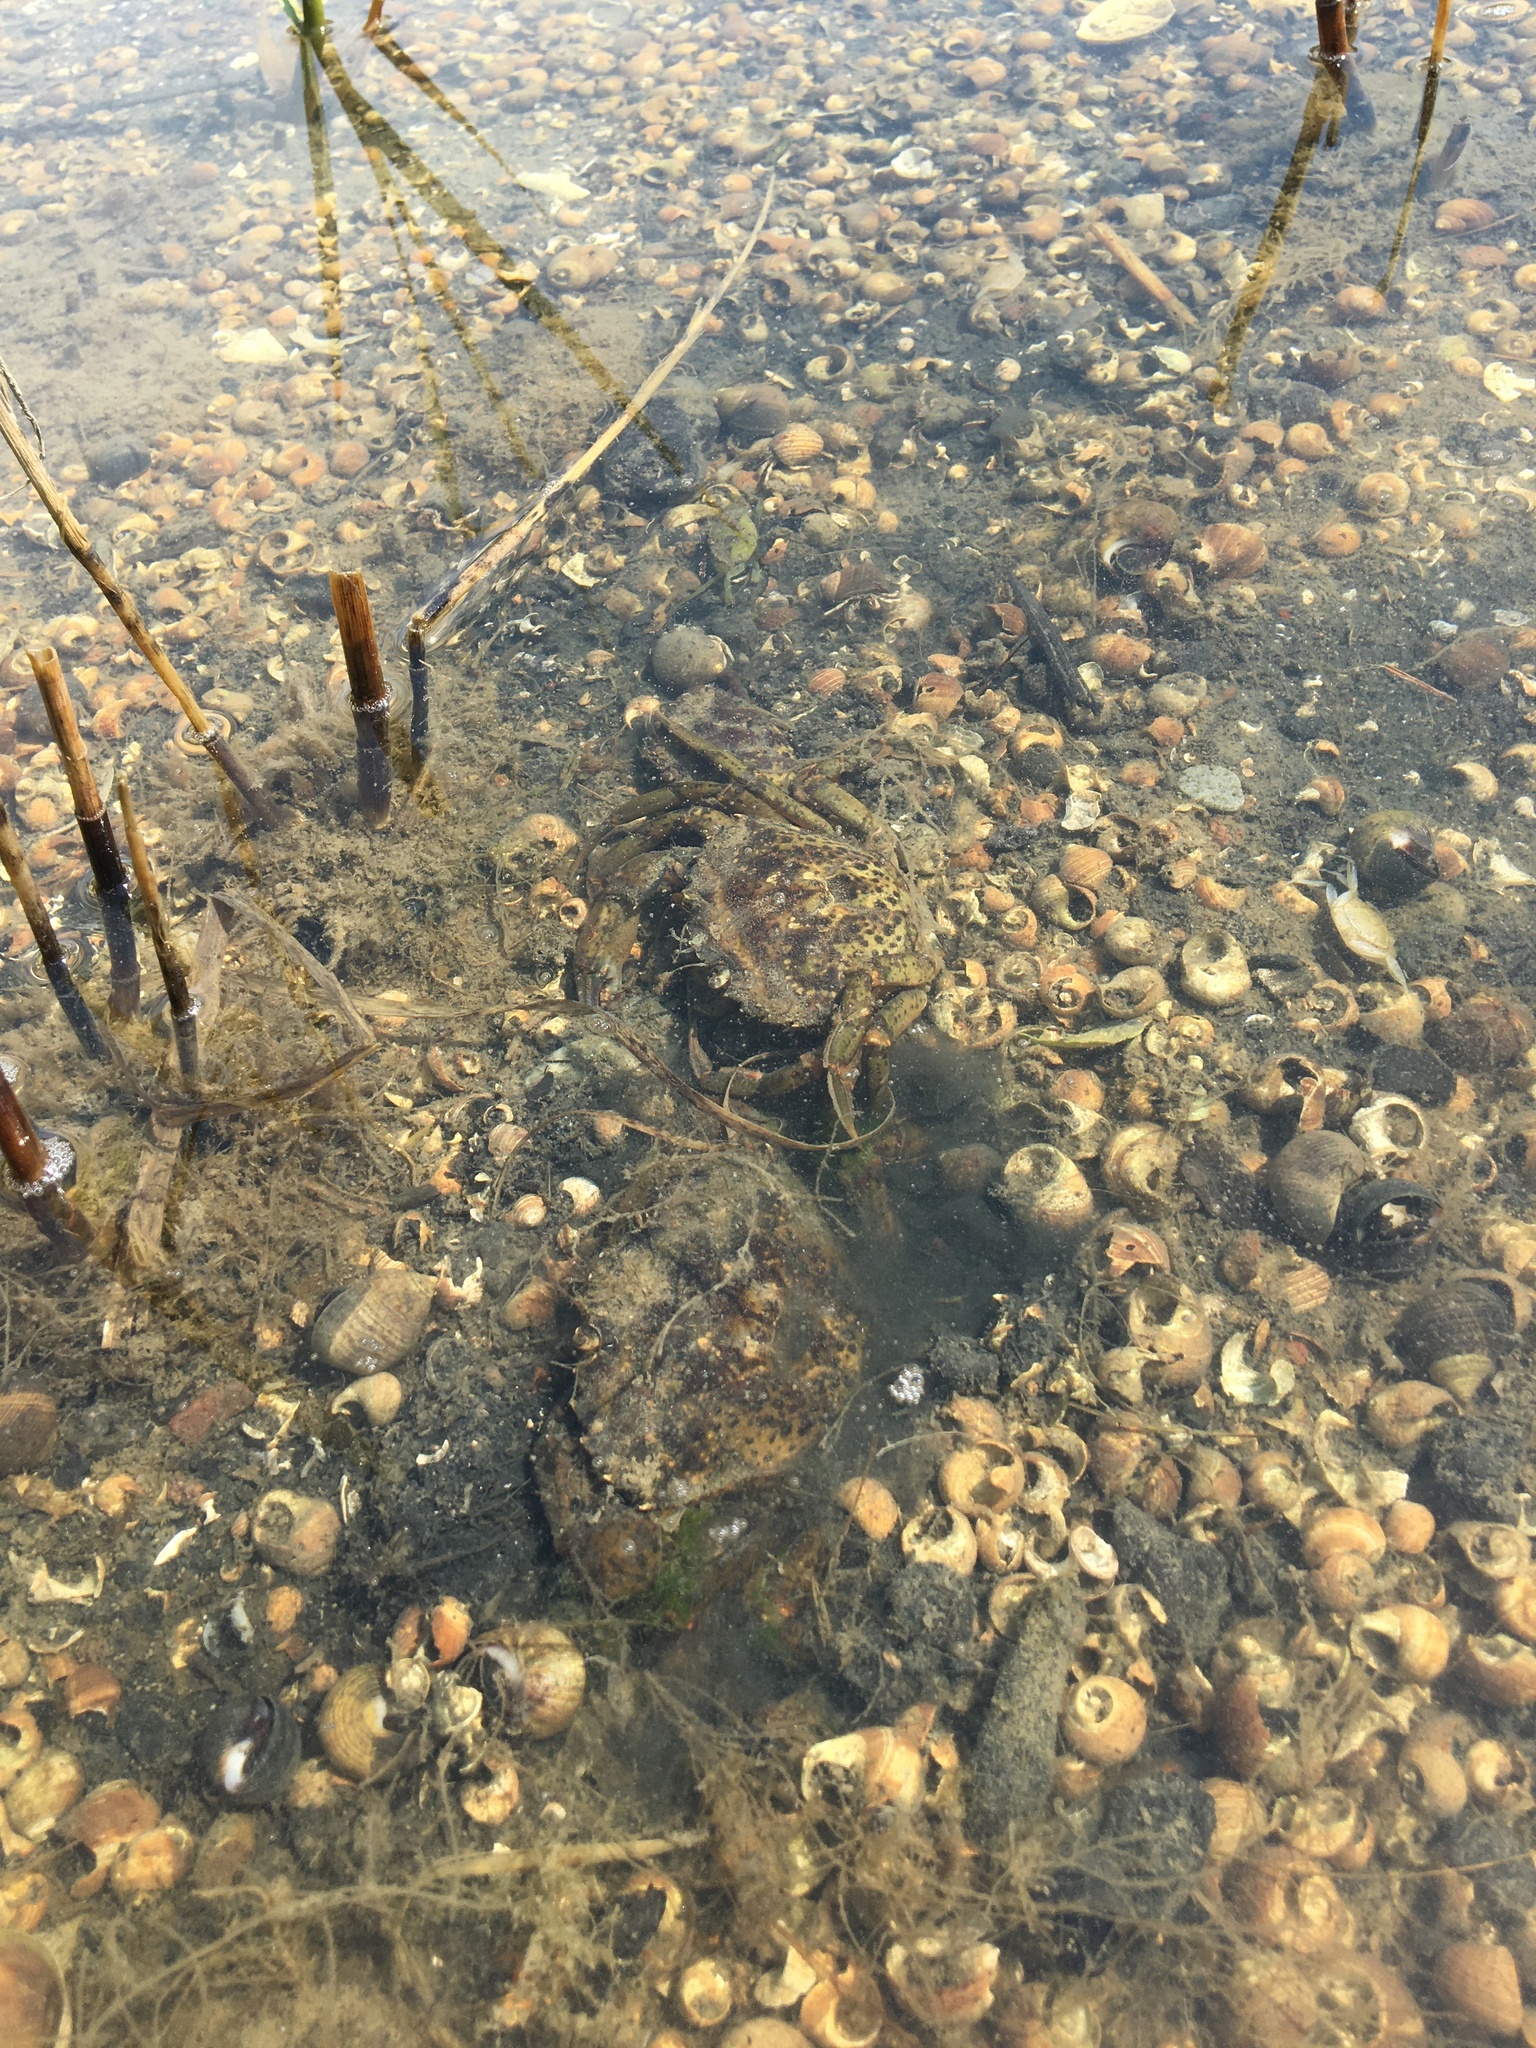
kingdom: Animalia
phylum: Arthropoda
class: Malacostraca
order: Decapoda
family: Carcinidae
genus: Carcinus
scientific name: Carcinus maenas
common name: European green crab
